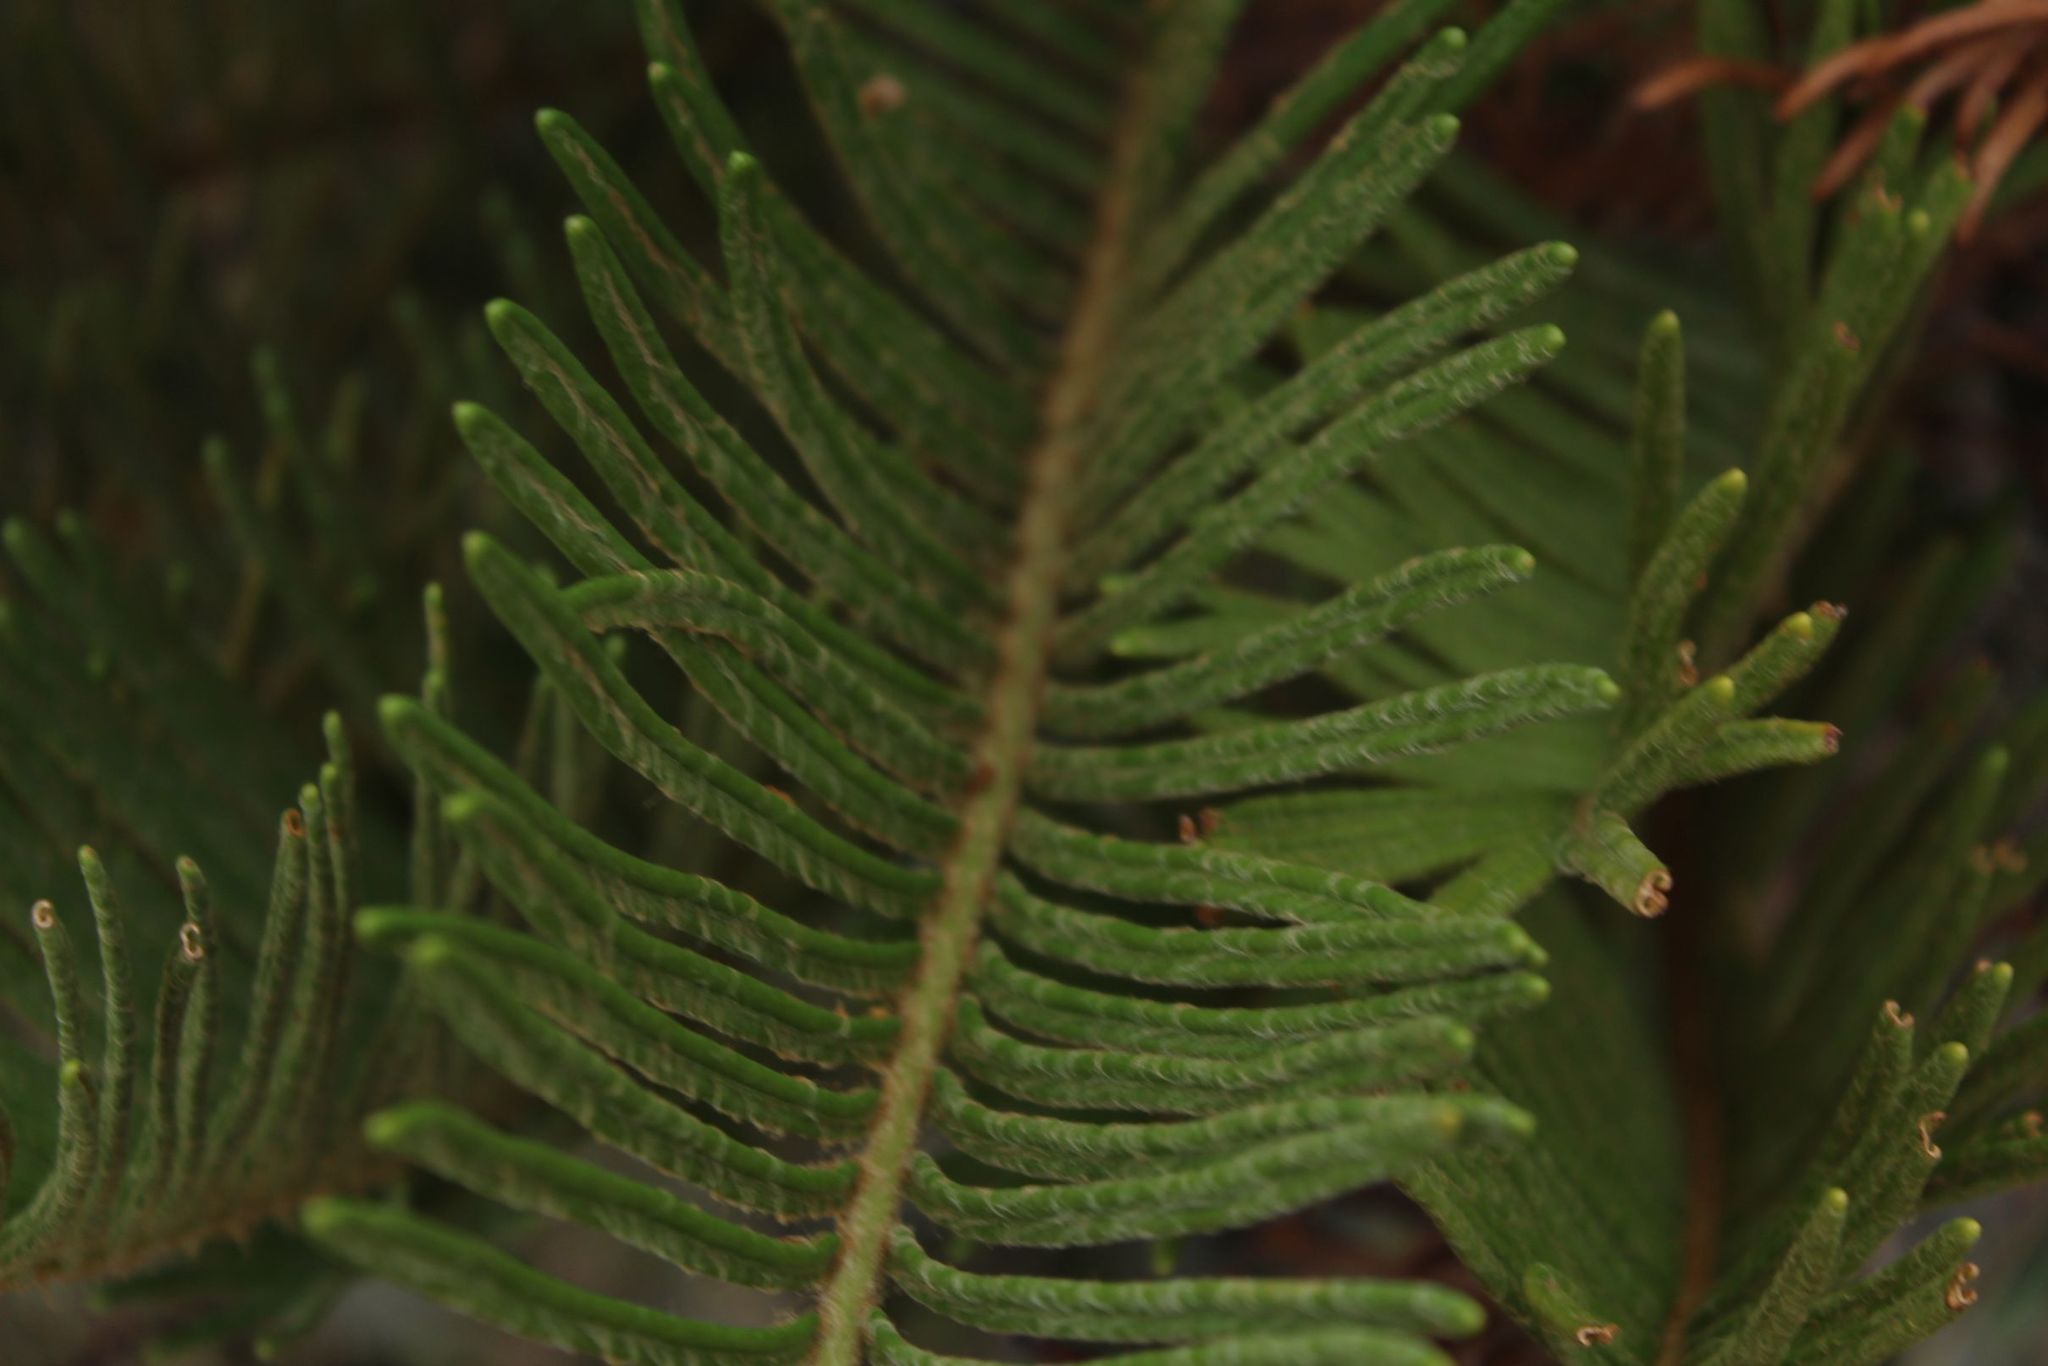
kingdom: Plantae
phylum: Tracheophyta
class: Polypodiopsida
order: Polypodiales
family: Blechnaceae
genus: Lomariocycas
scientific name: Lomariocycas aurata
